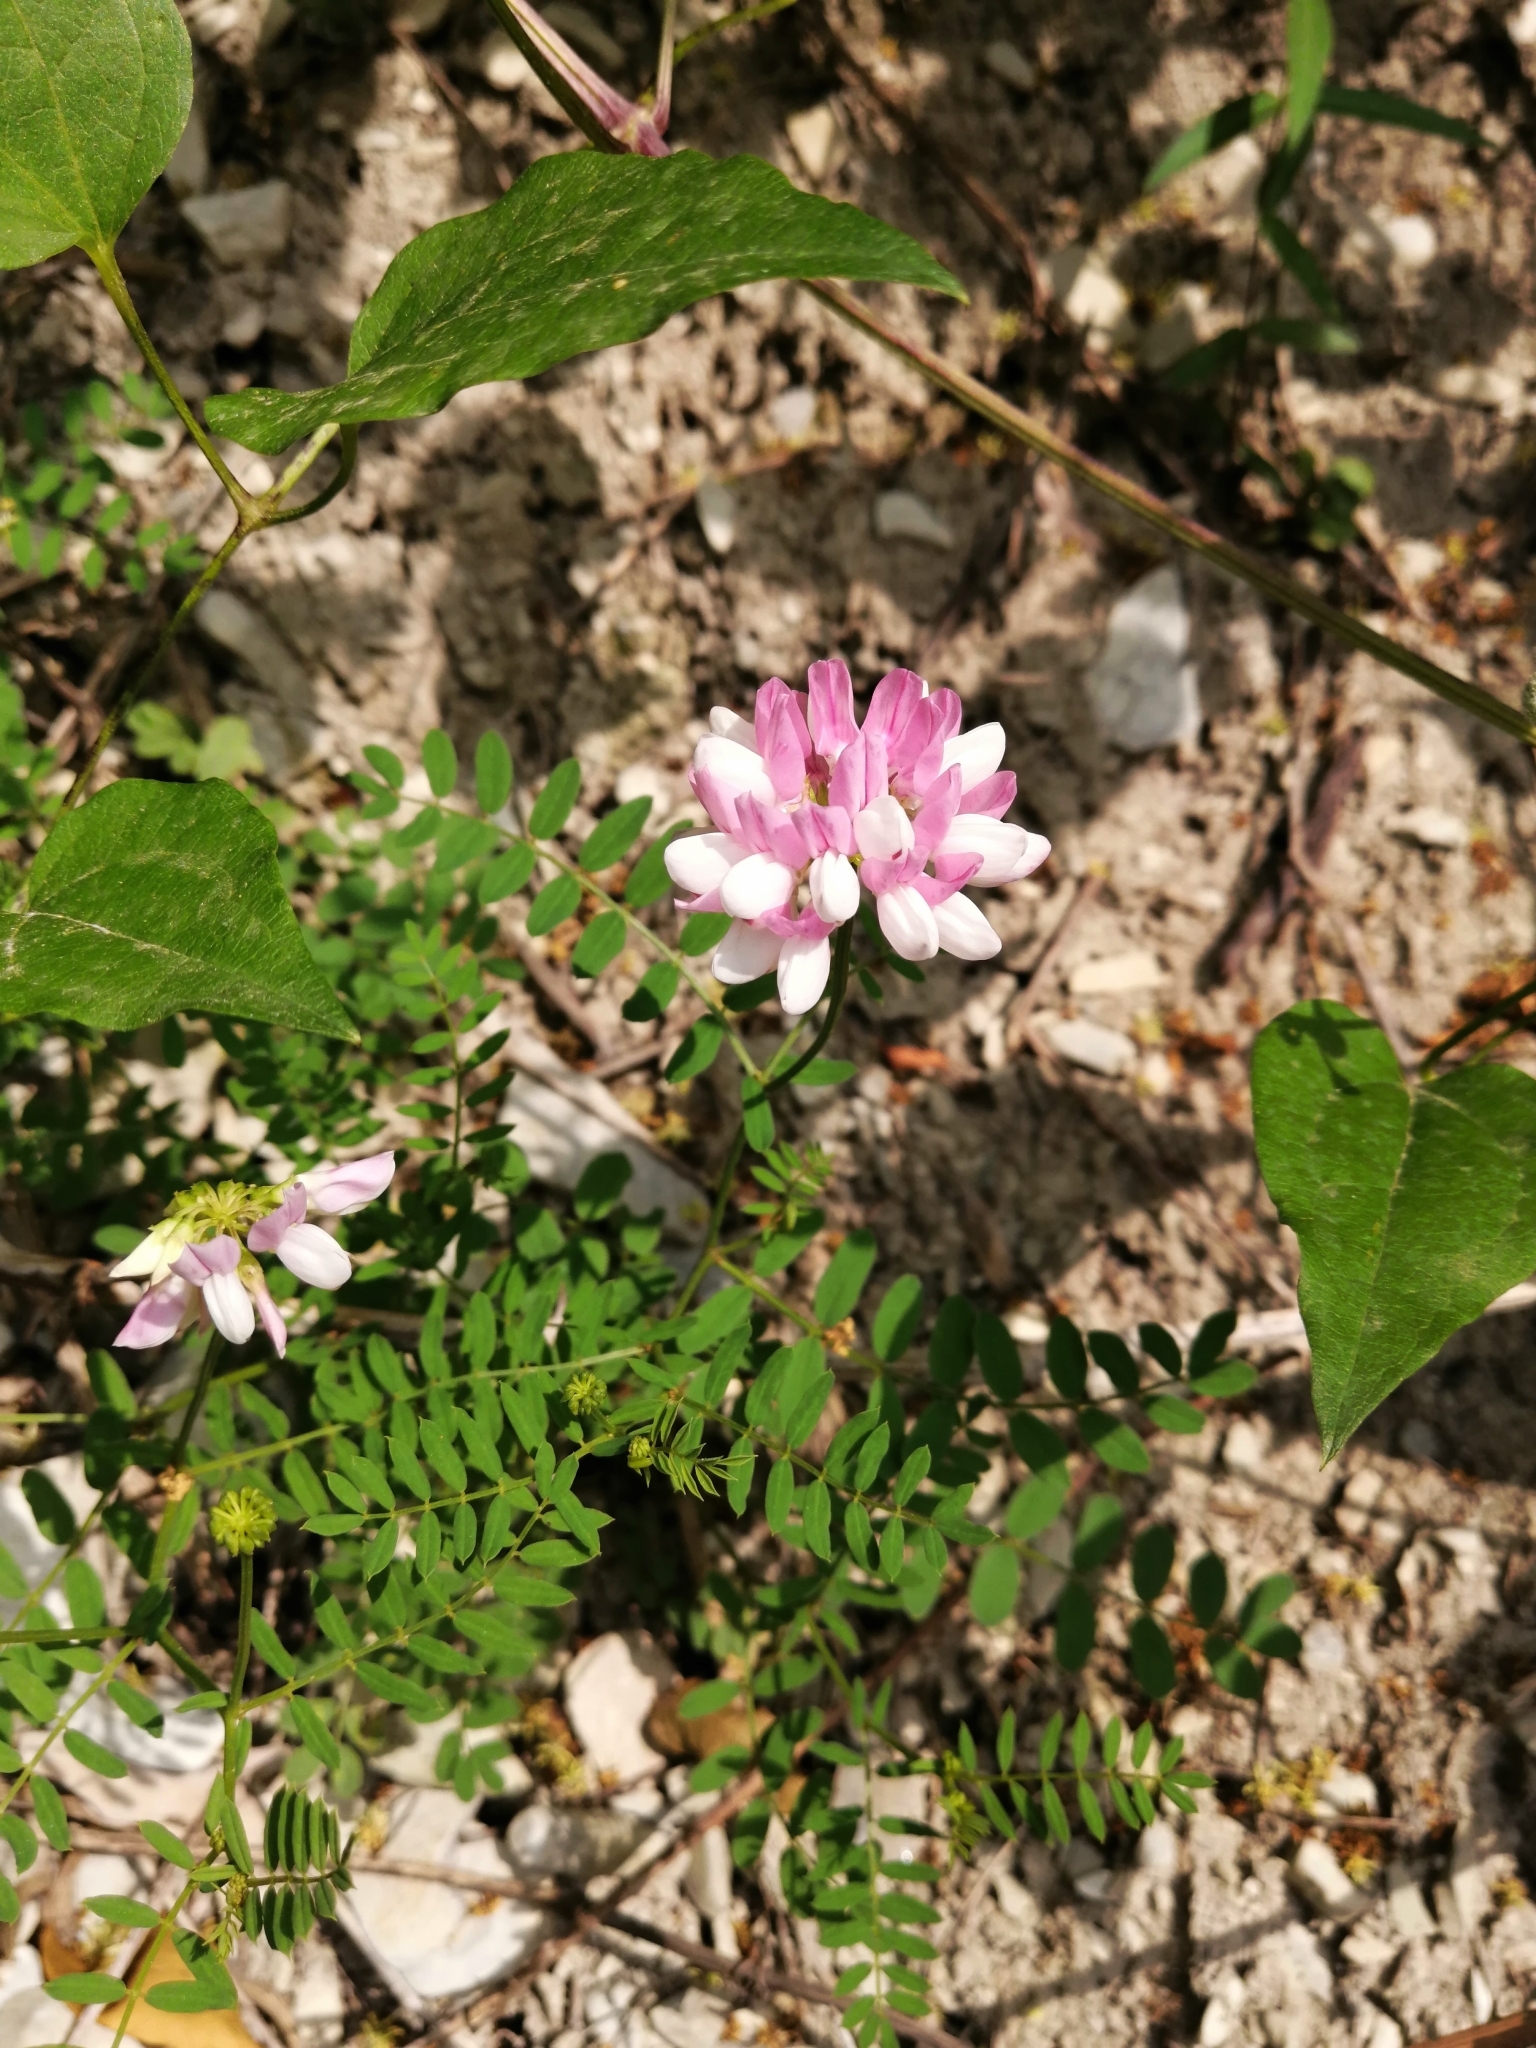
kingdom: Plantae
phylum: Tracheophyta
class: Magnoliopsida
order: Fabales
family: Fabaceae
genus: Coronilla
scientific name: Coronilla varia
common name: Crownvetch
